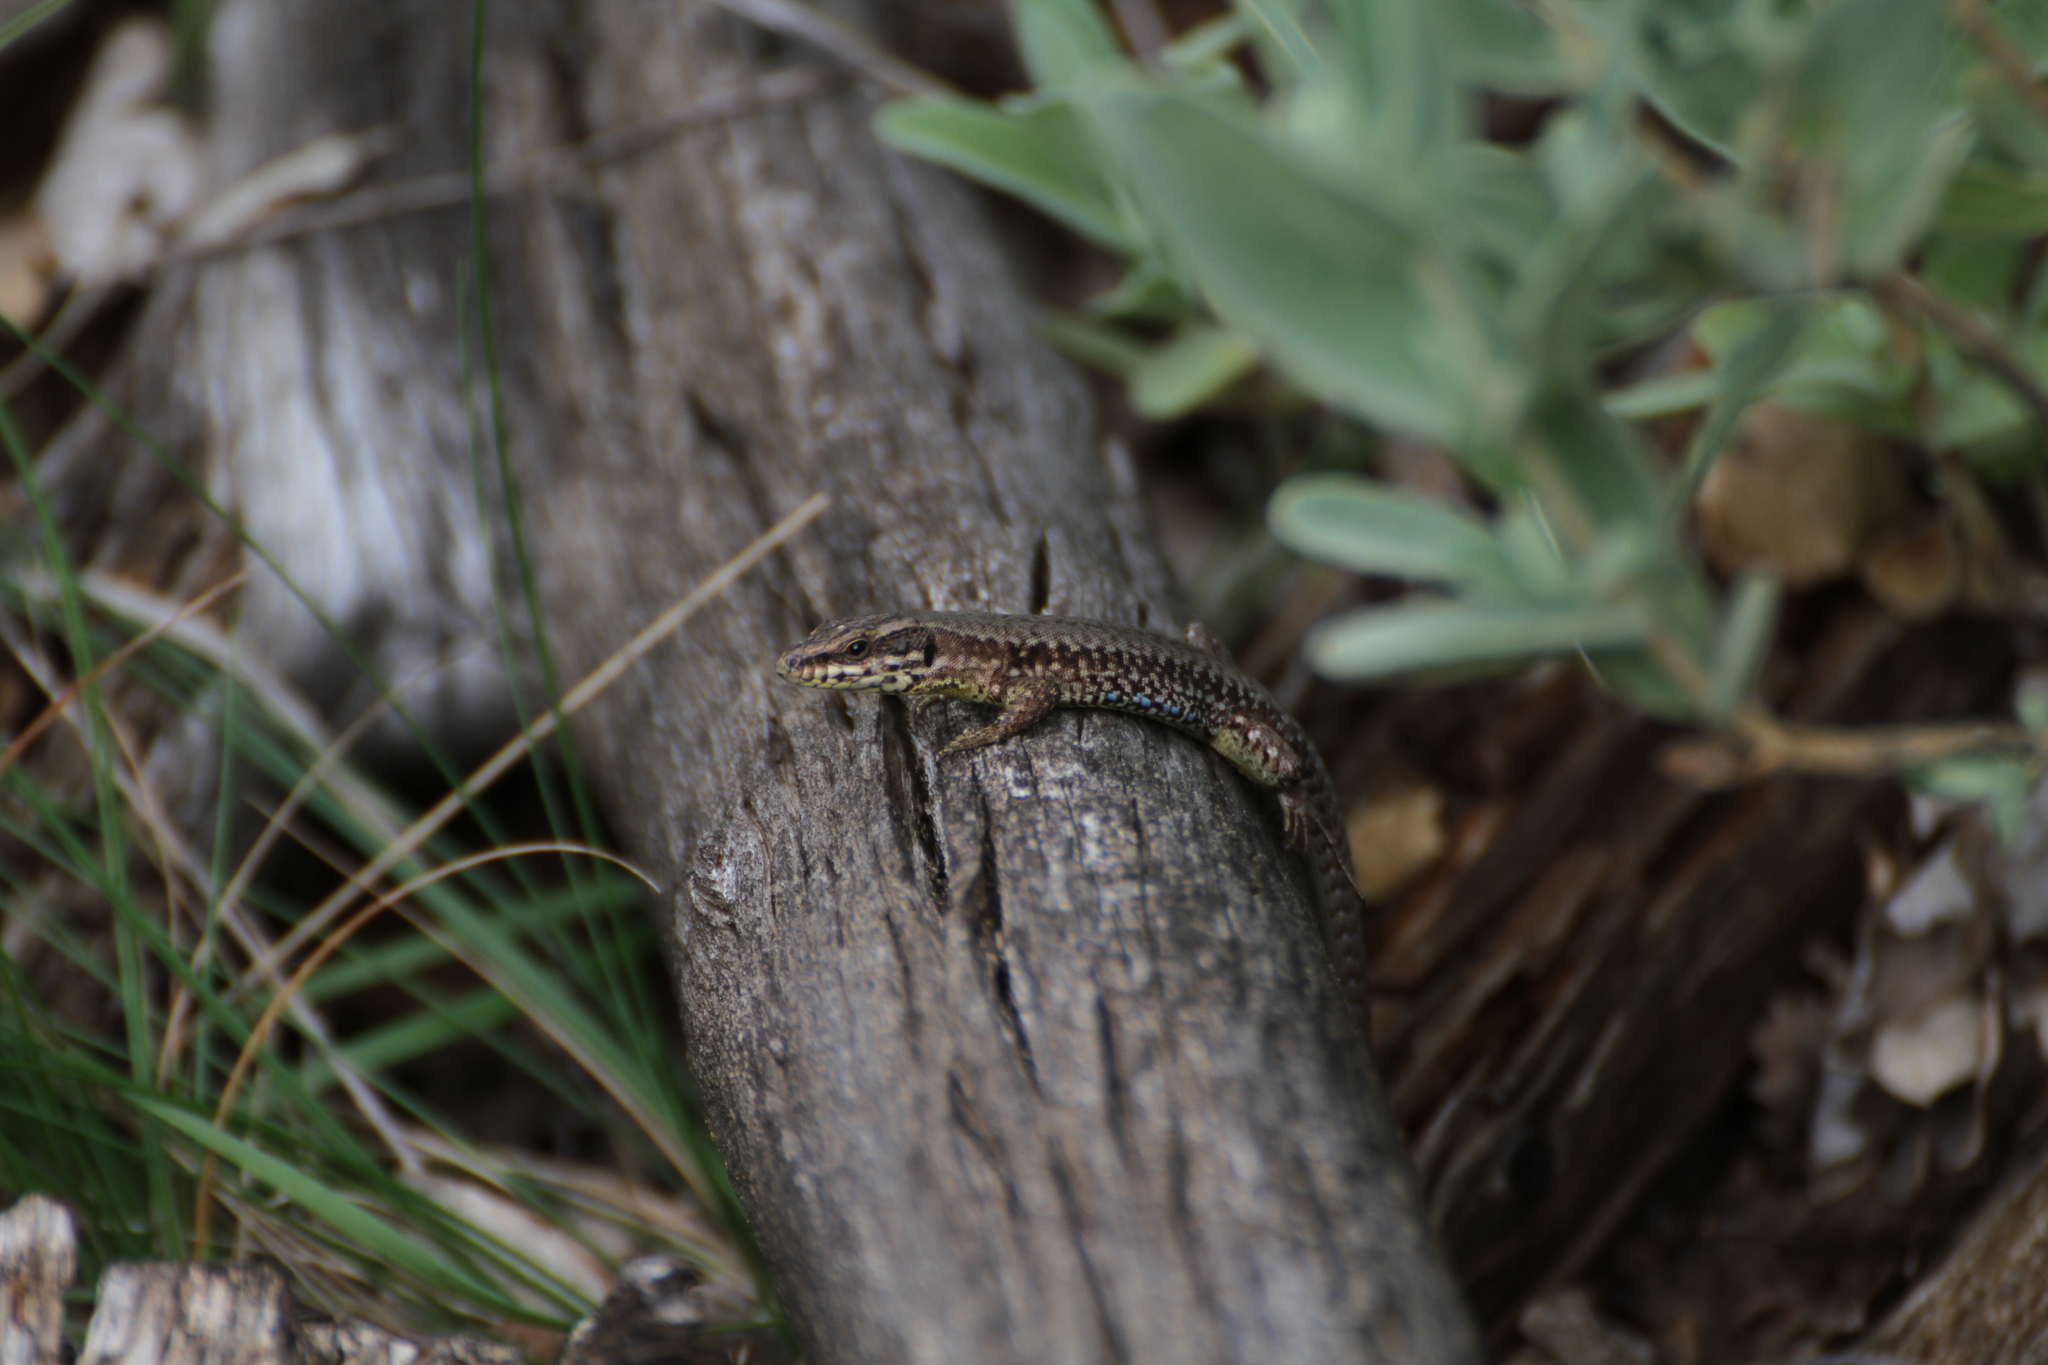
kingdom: Animalia
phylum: Chordata
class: Squamata
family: Lacertidae
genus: Podarcis
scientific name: Podarcis muralis
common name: Common wall lizard
